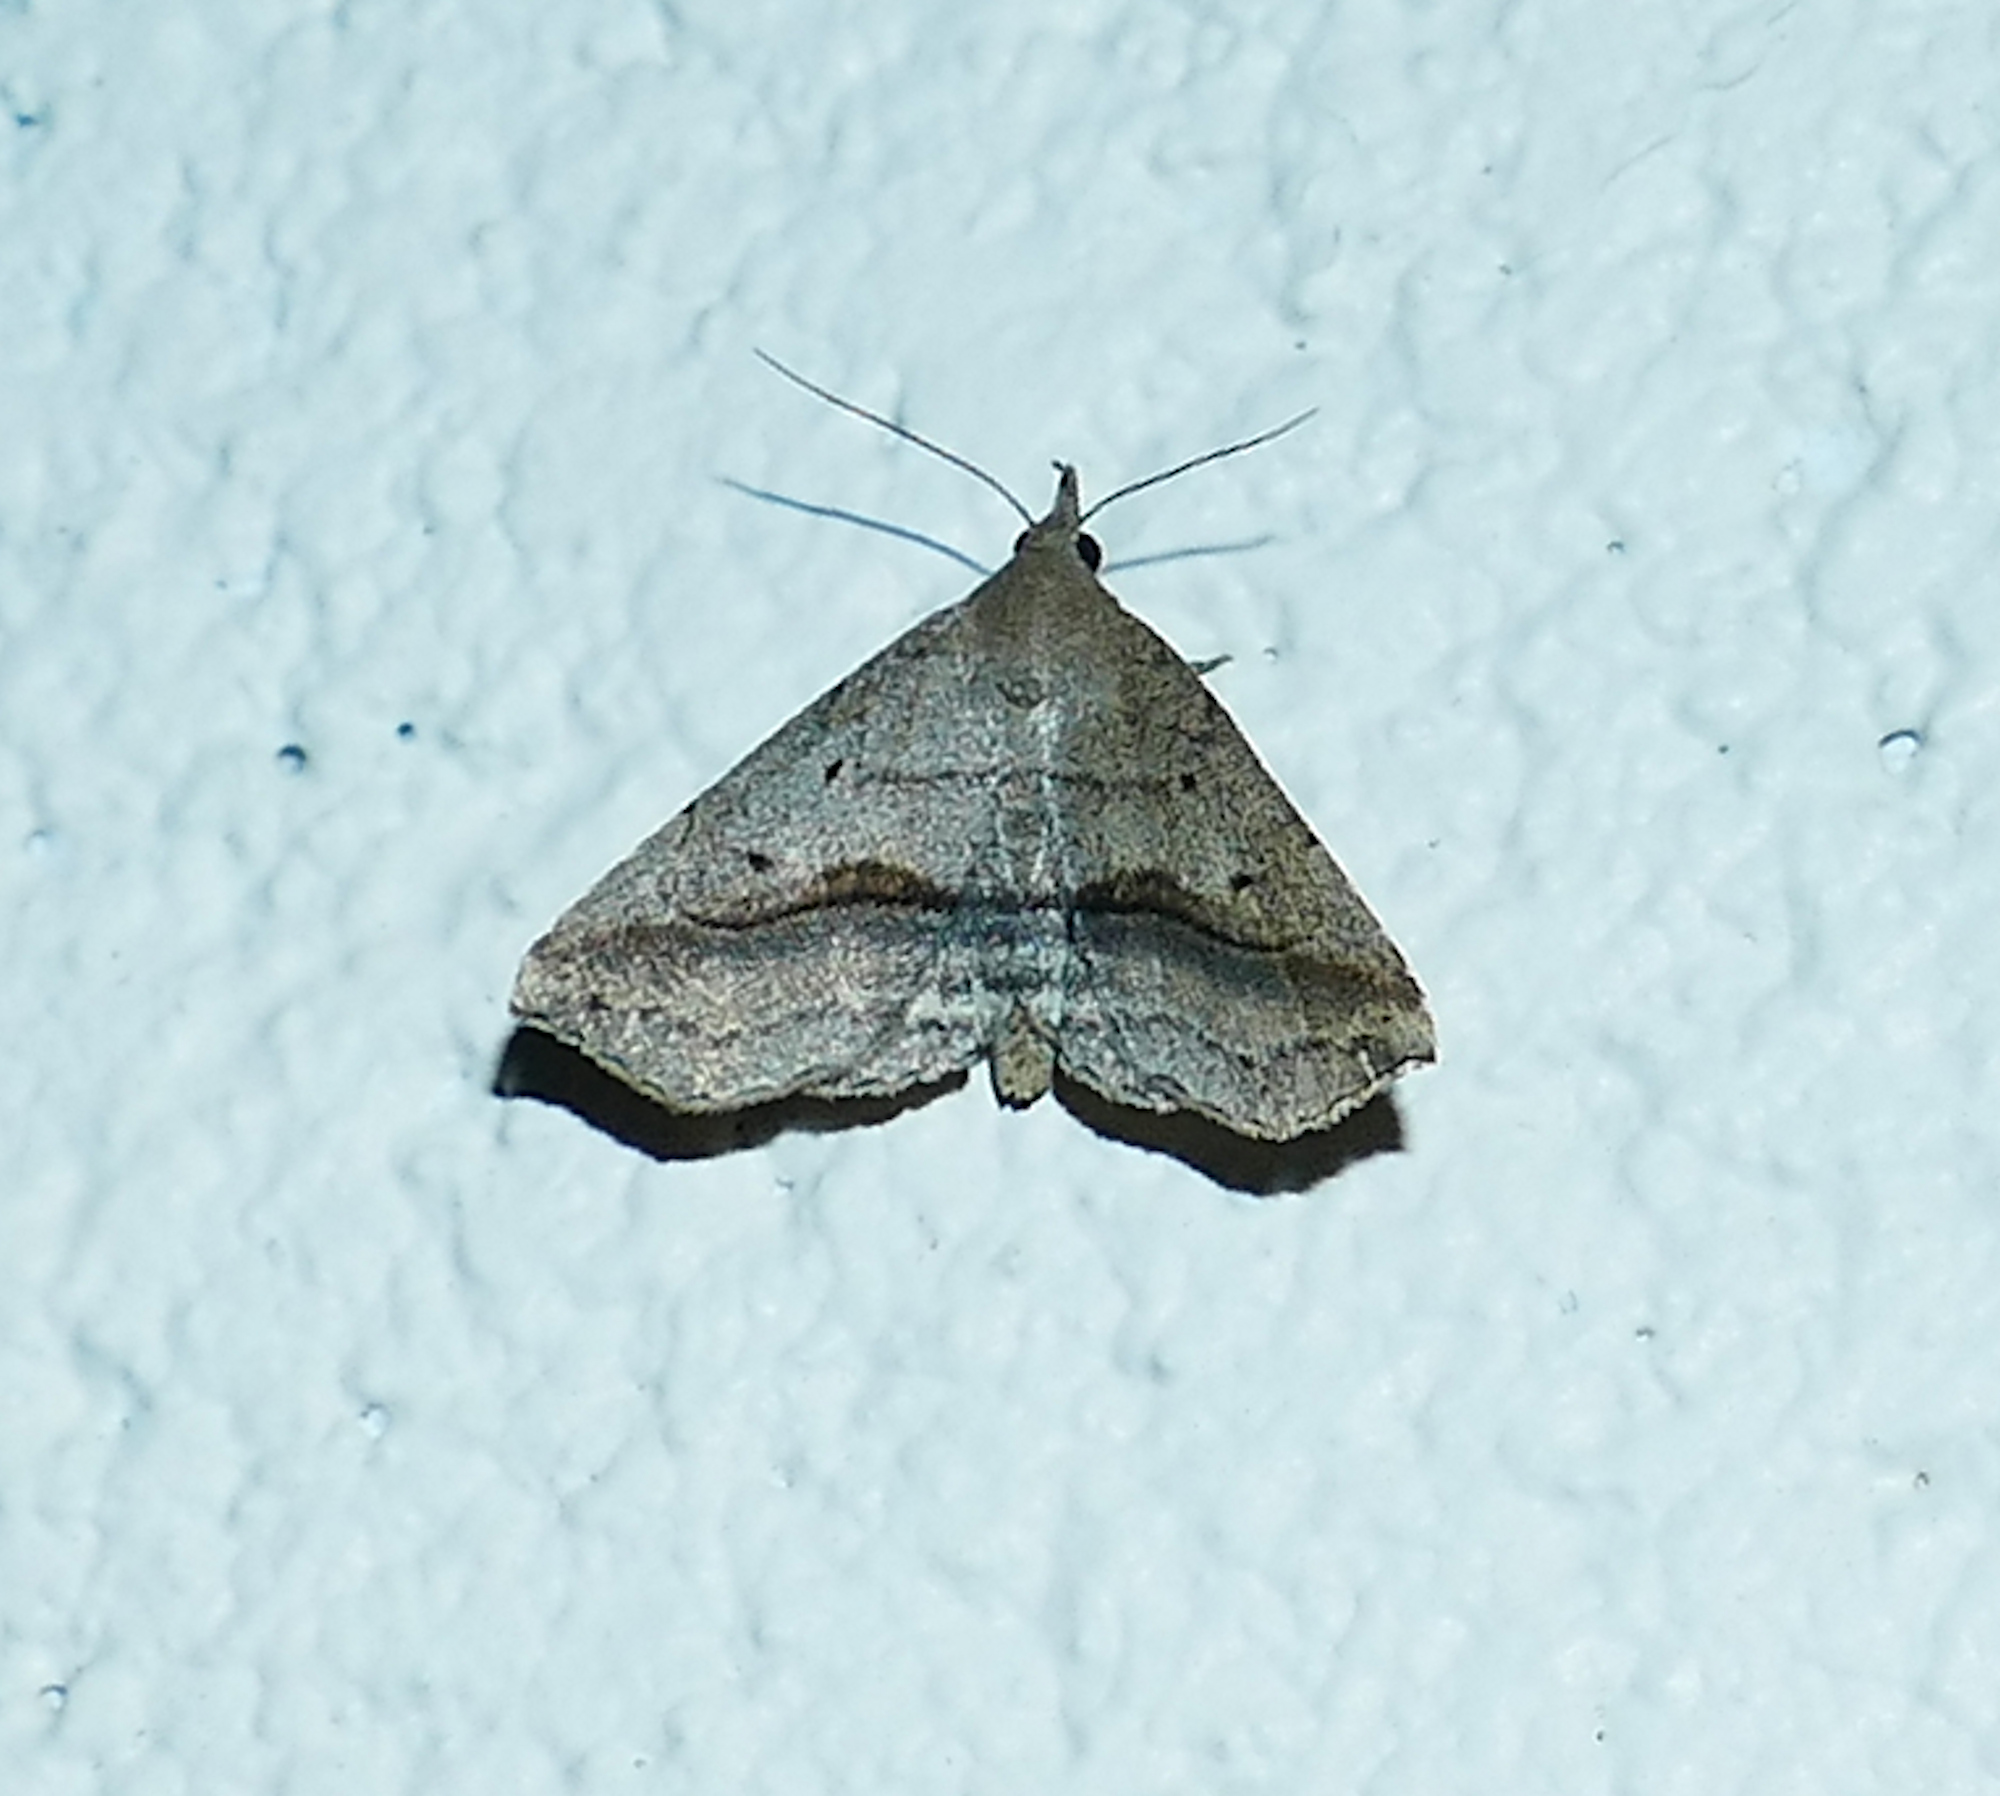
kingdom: Animalia
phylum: Arthropoda
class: Insecta
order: Lepidoptera
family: Erebidae
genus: Spargaloma
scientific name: Spargaloma perditalis
